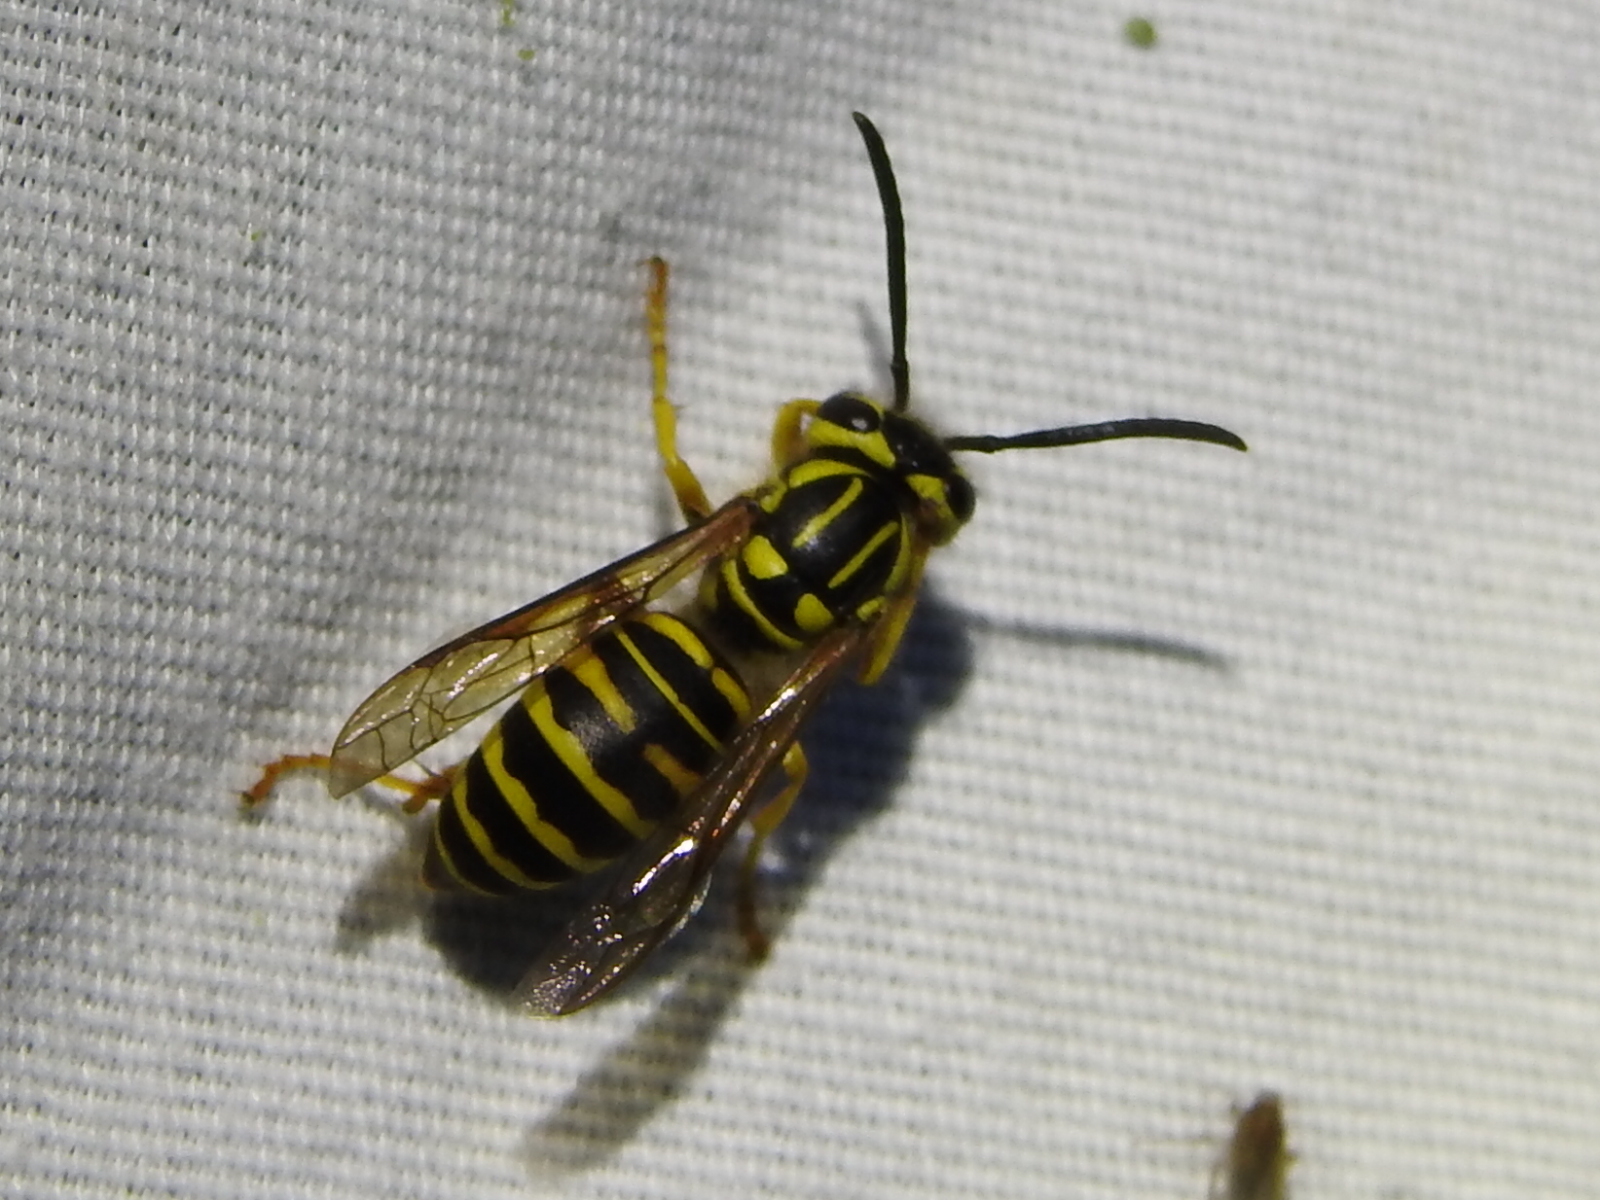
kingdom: Animalia
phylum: Arthropoda
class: Insecta
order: Hymenoptera
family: Vespidae
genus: Vespula
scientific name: Vespula squamosa
